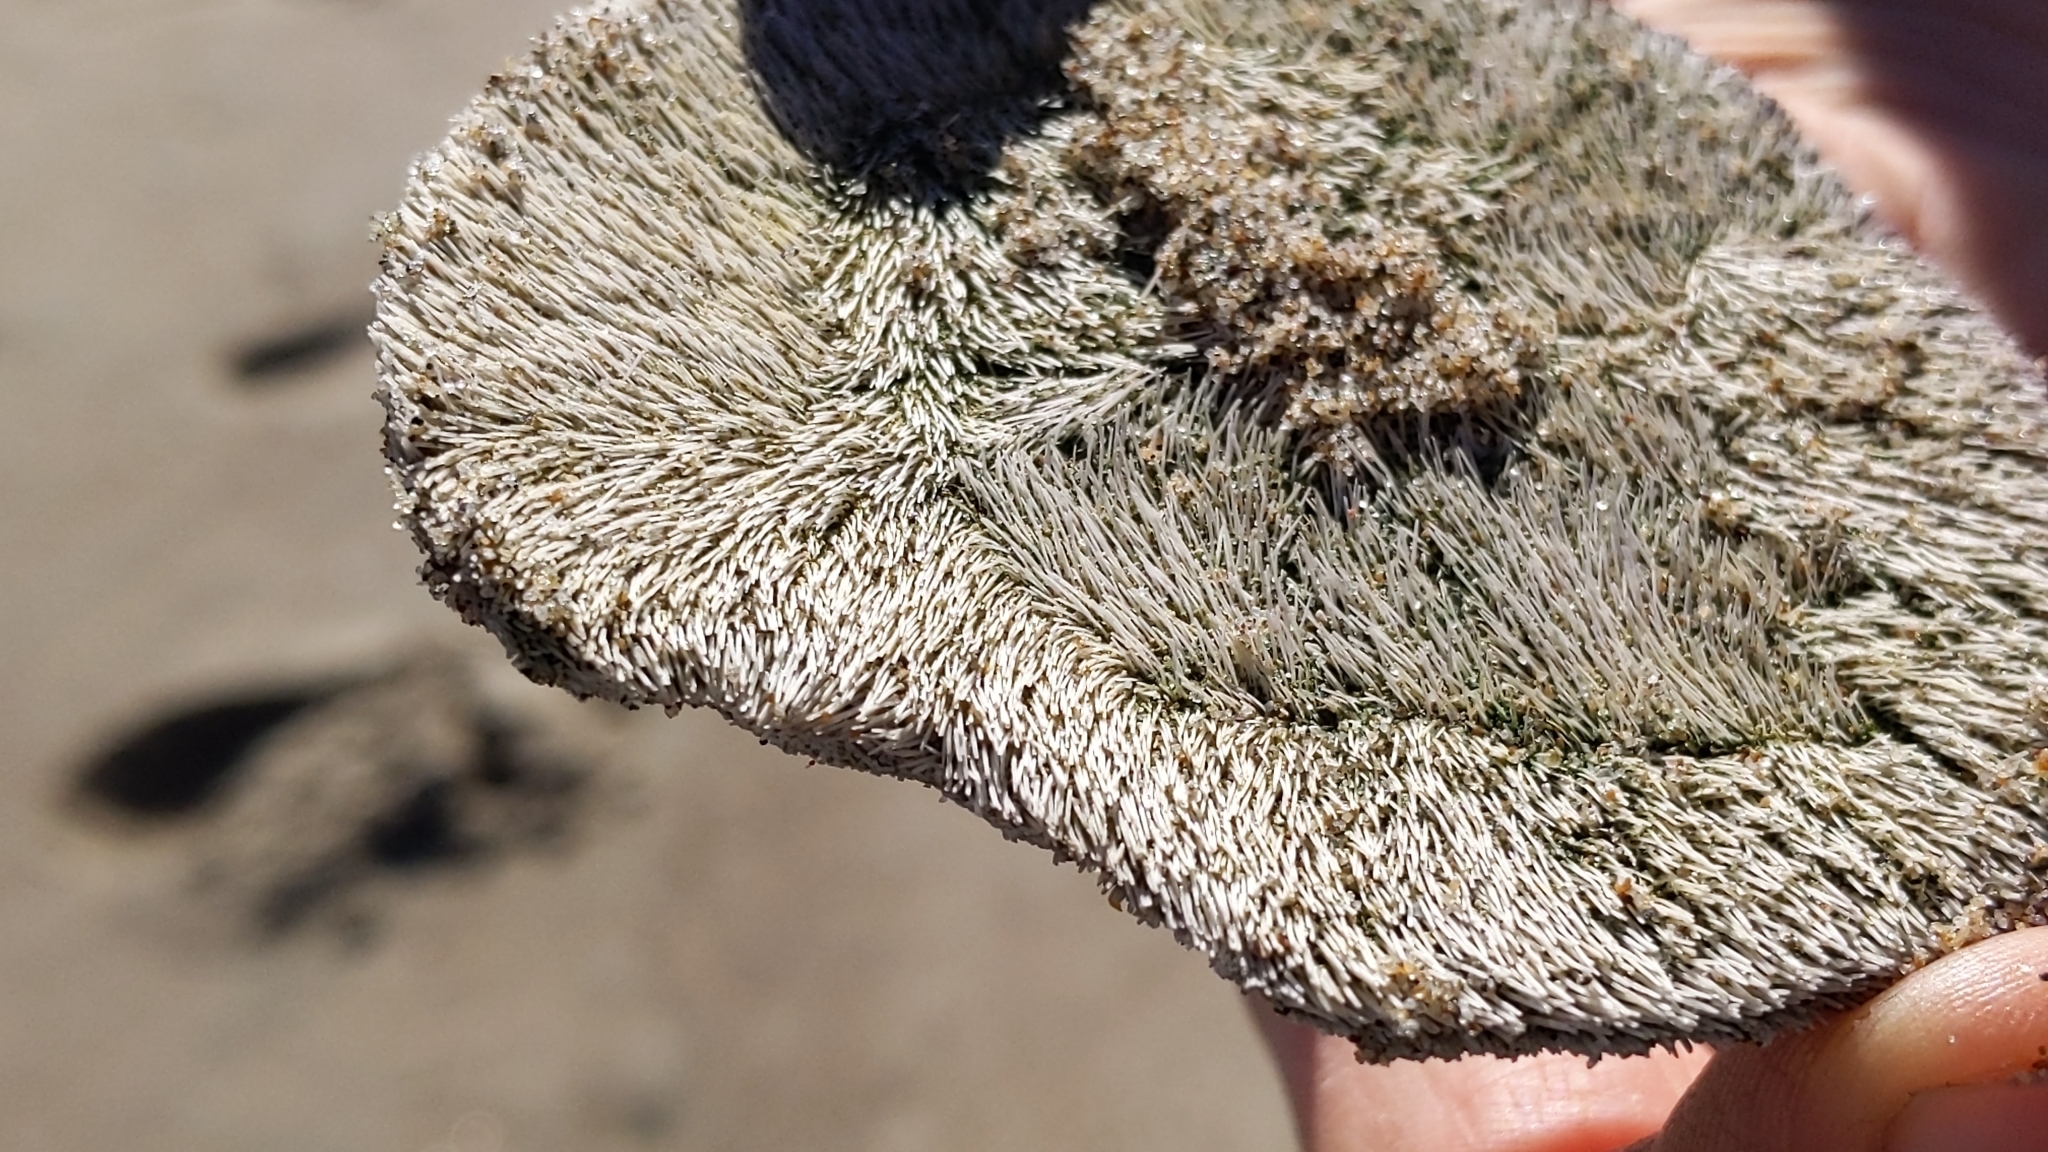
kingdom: Animalia
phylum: Echinodermata
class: Echinoidea
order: Echinolampadacea
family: Dendrasteridae
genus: Dendraster
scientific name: Dendraster excentricus
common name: Eccentric sand dollar sea urchin
